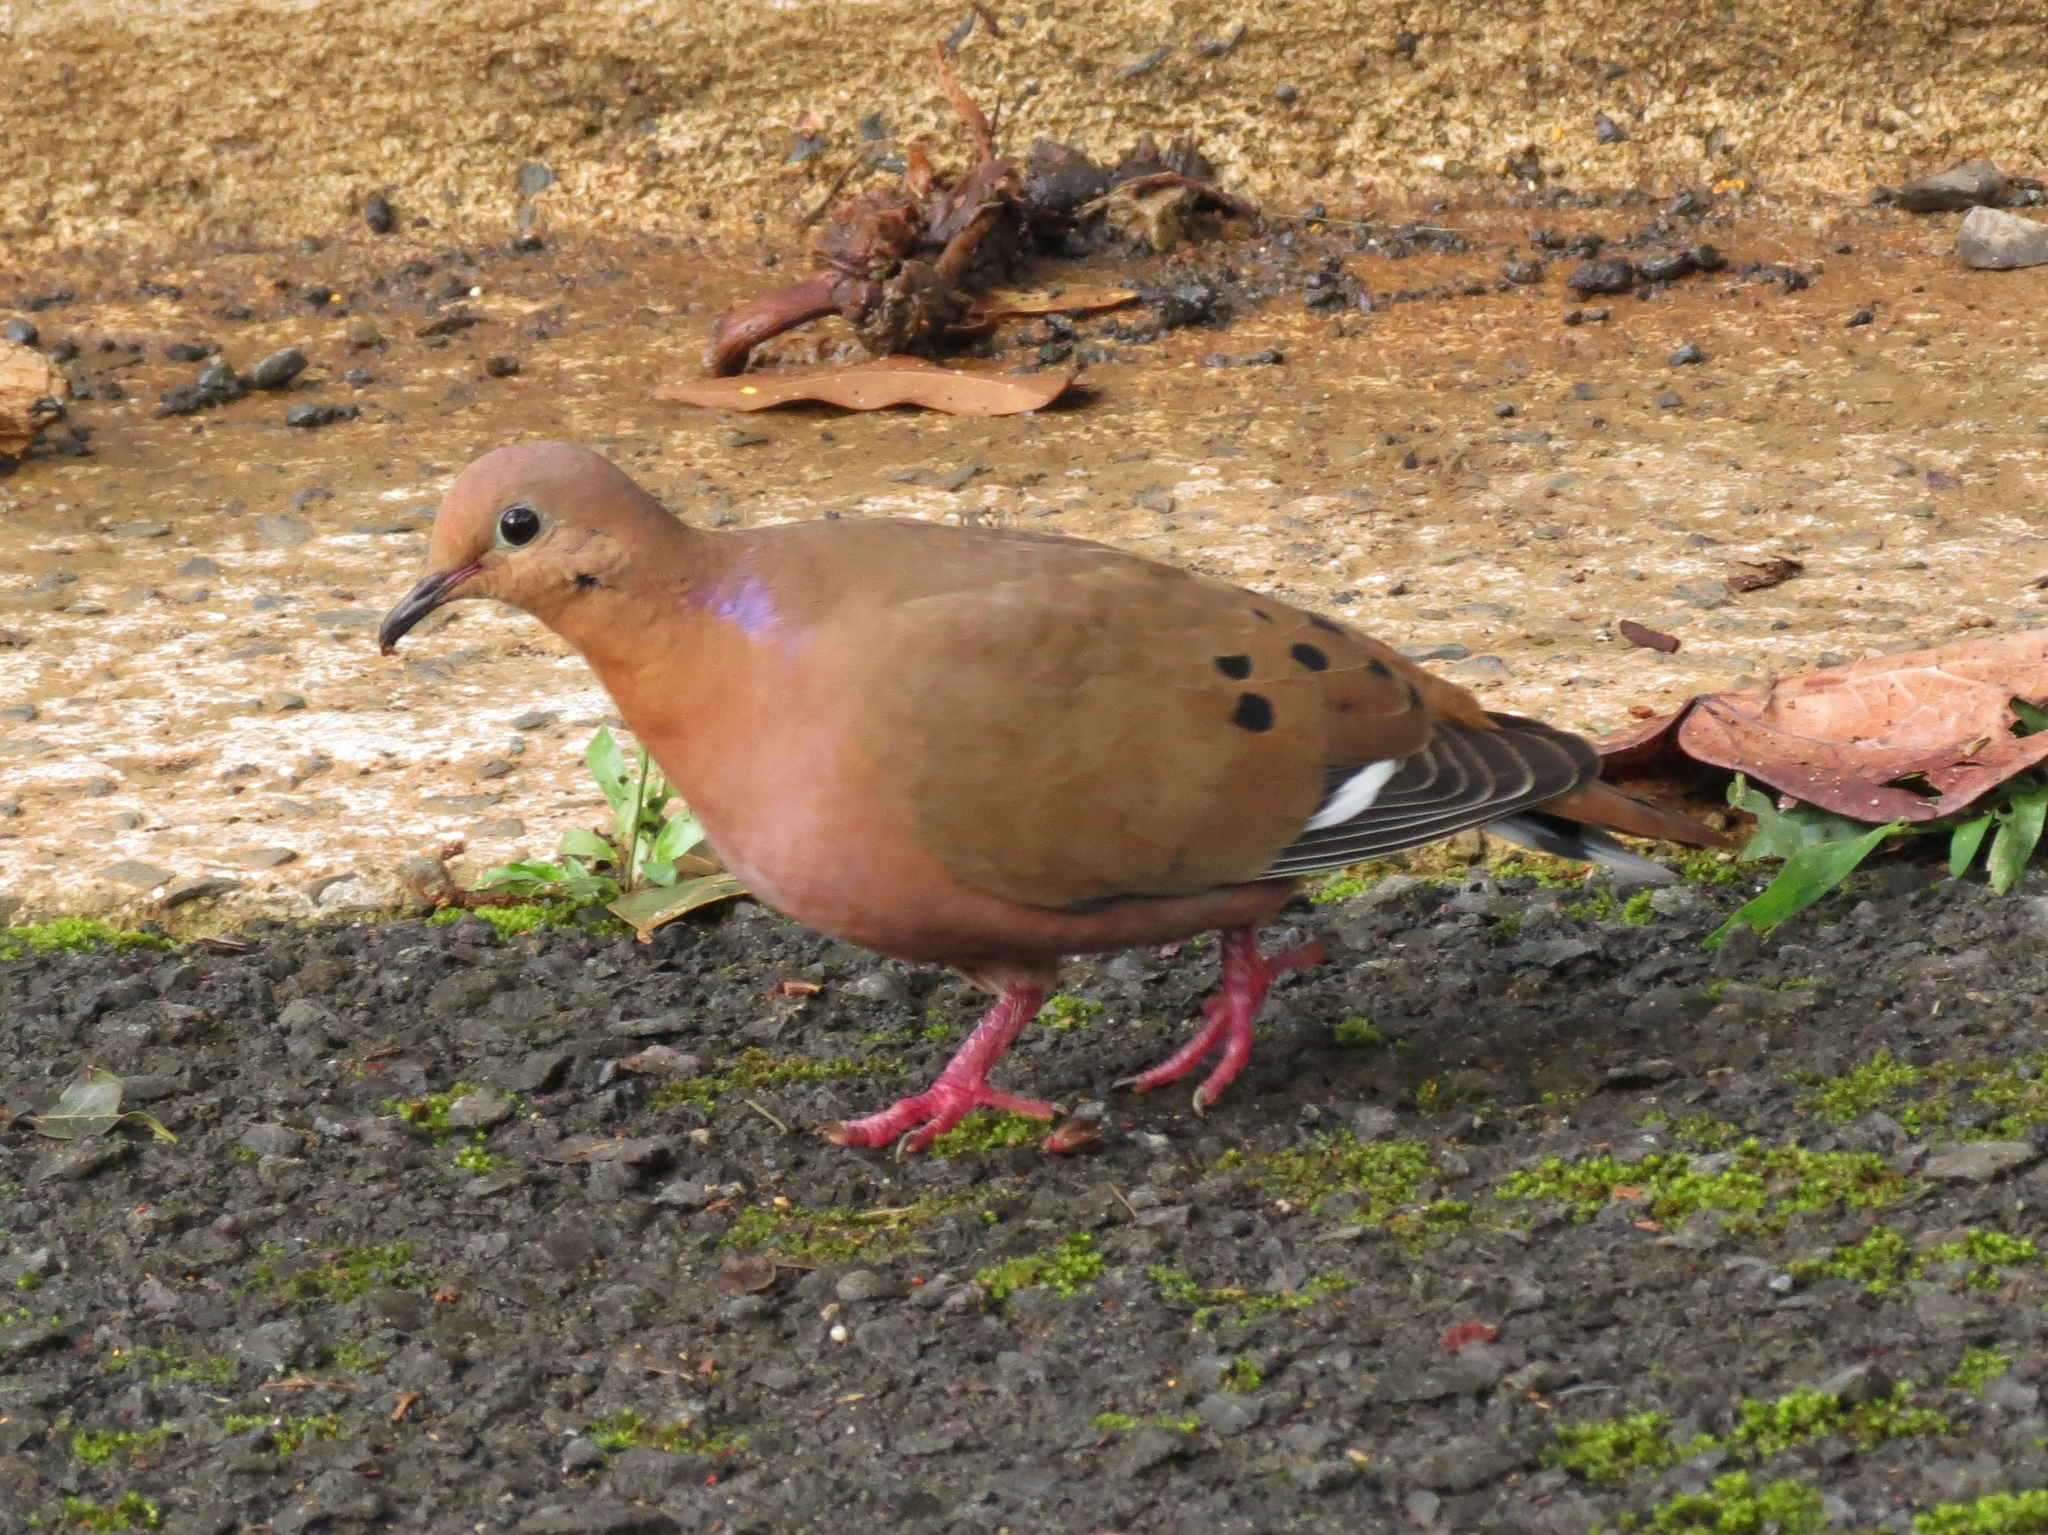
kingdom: Animalia
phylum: Chordata
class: Aves
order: Columbiformes
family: Columbidae
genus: Zenaida
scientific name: Zenaida aurita
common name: Zenaida dove
